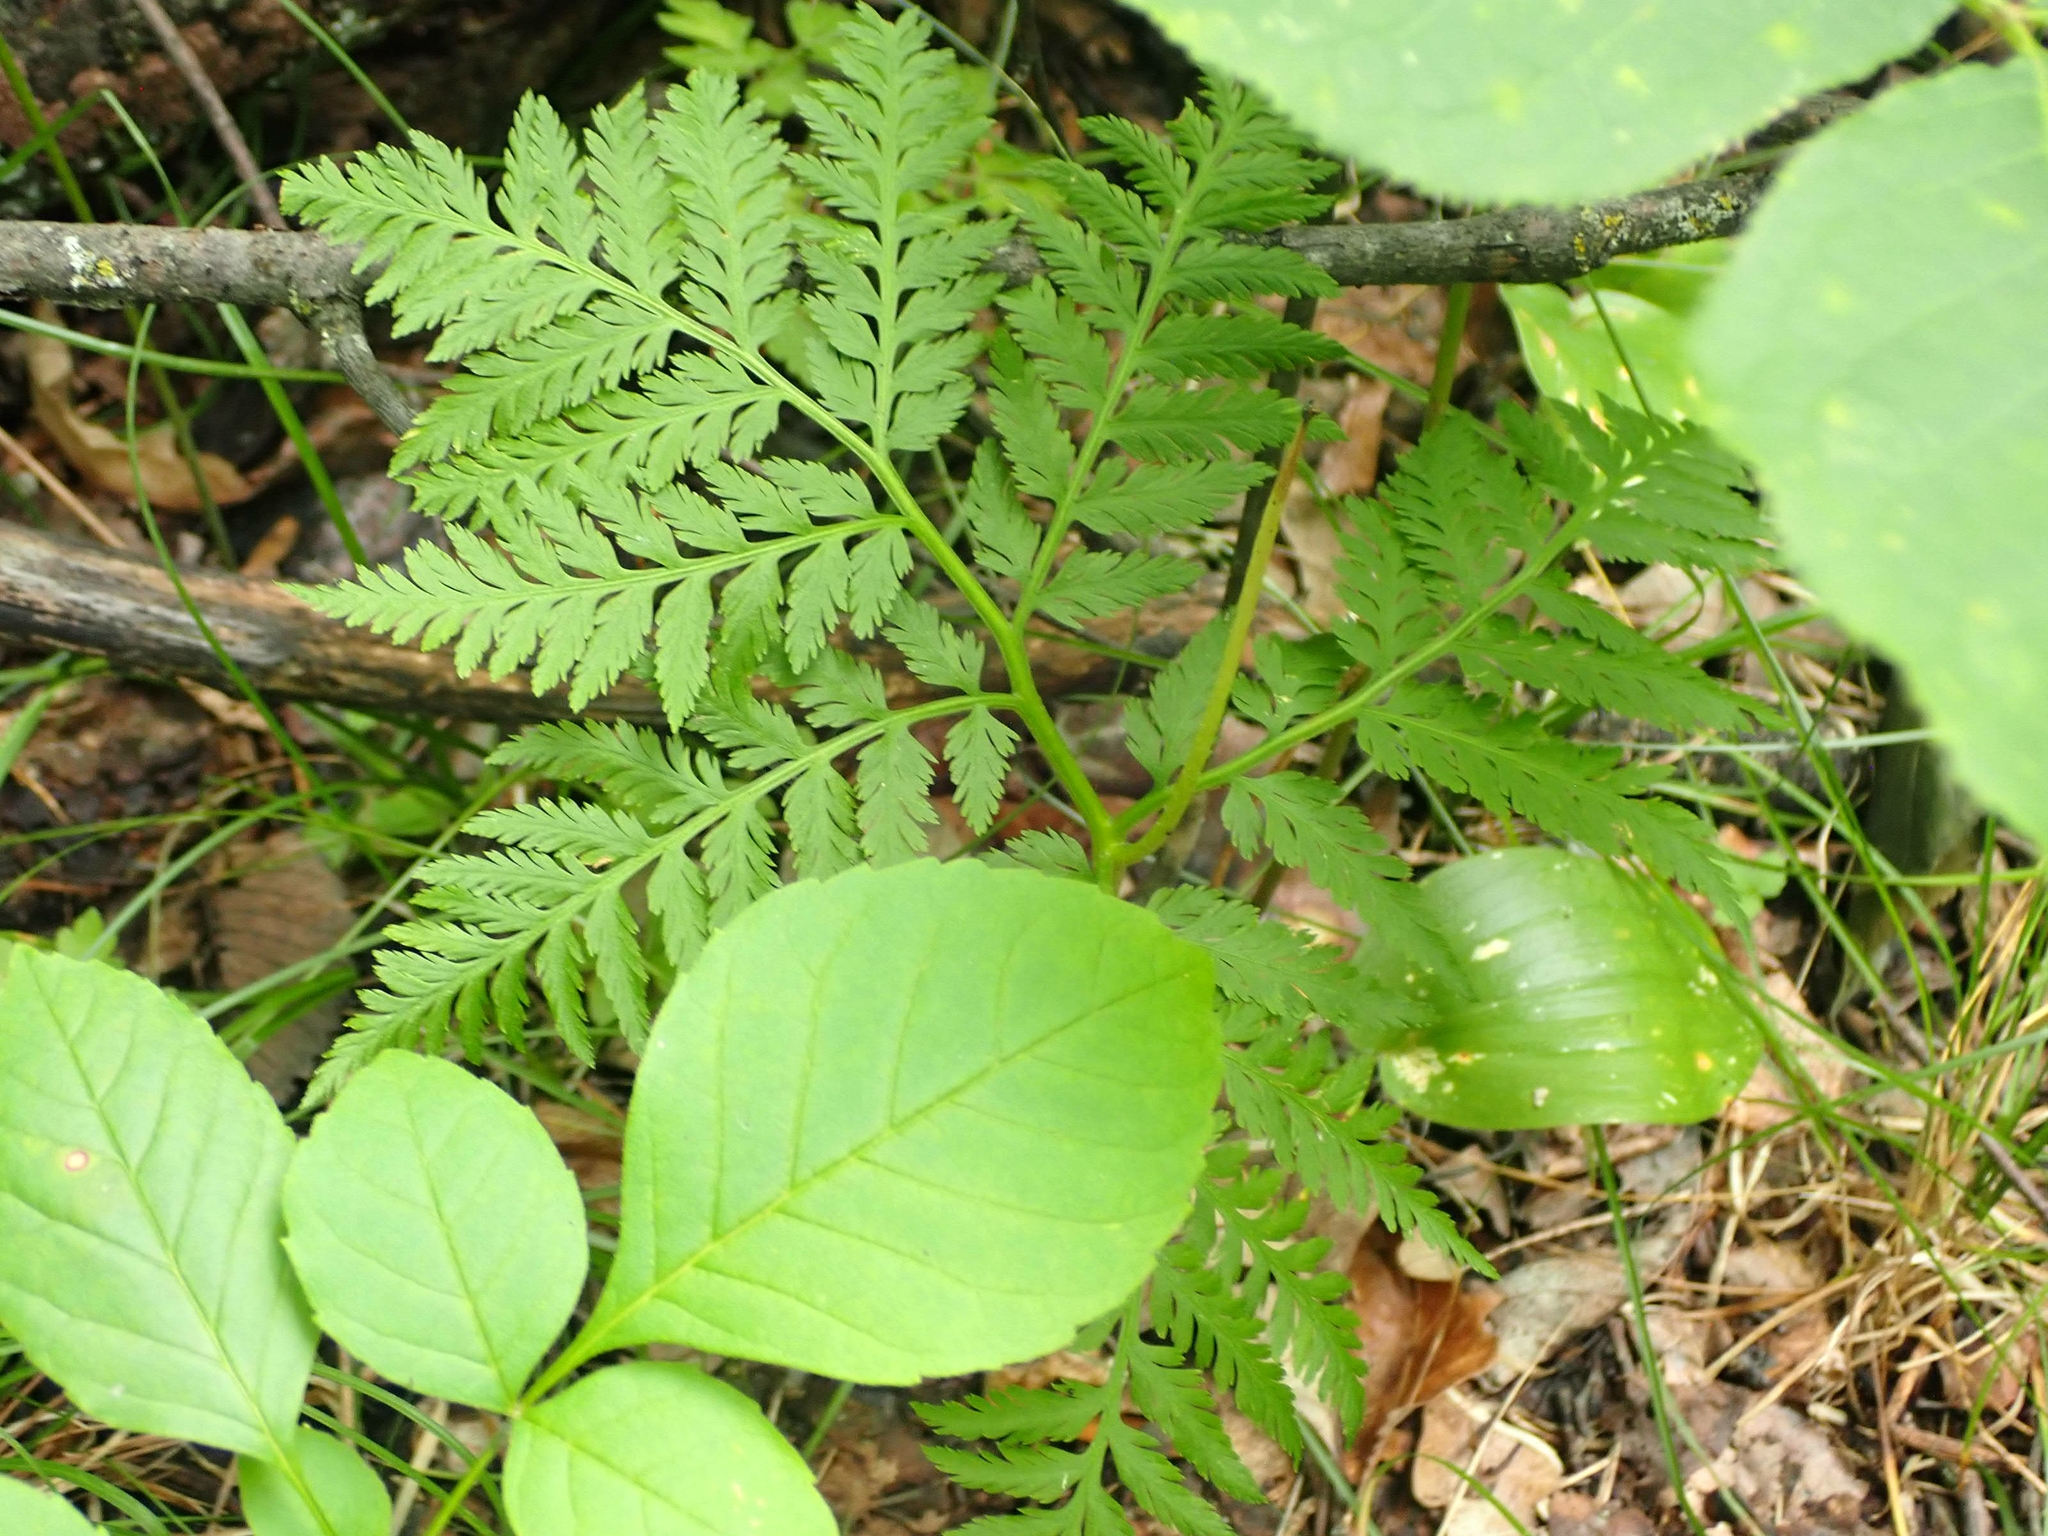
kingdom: Plantae
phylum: Tracheophyta
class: Polypodiopsida
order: Ophioglossales
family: Ophioglossaceae
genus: Botrypus
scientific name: Botrypus virginianus
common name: Common grapefern
